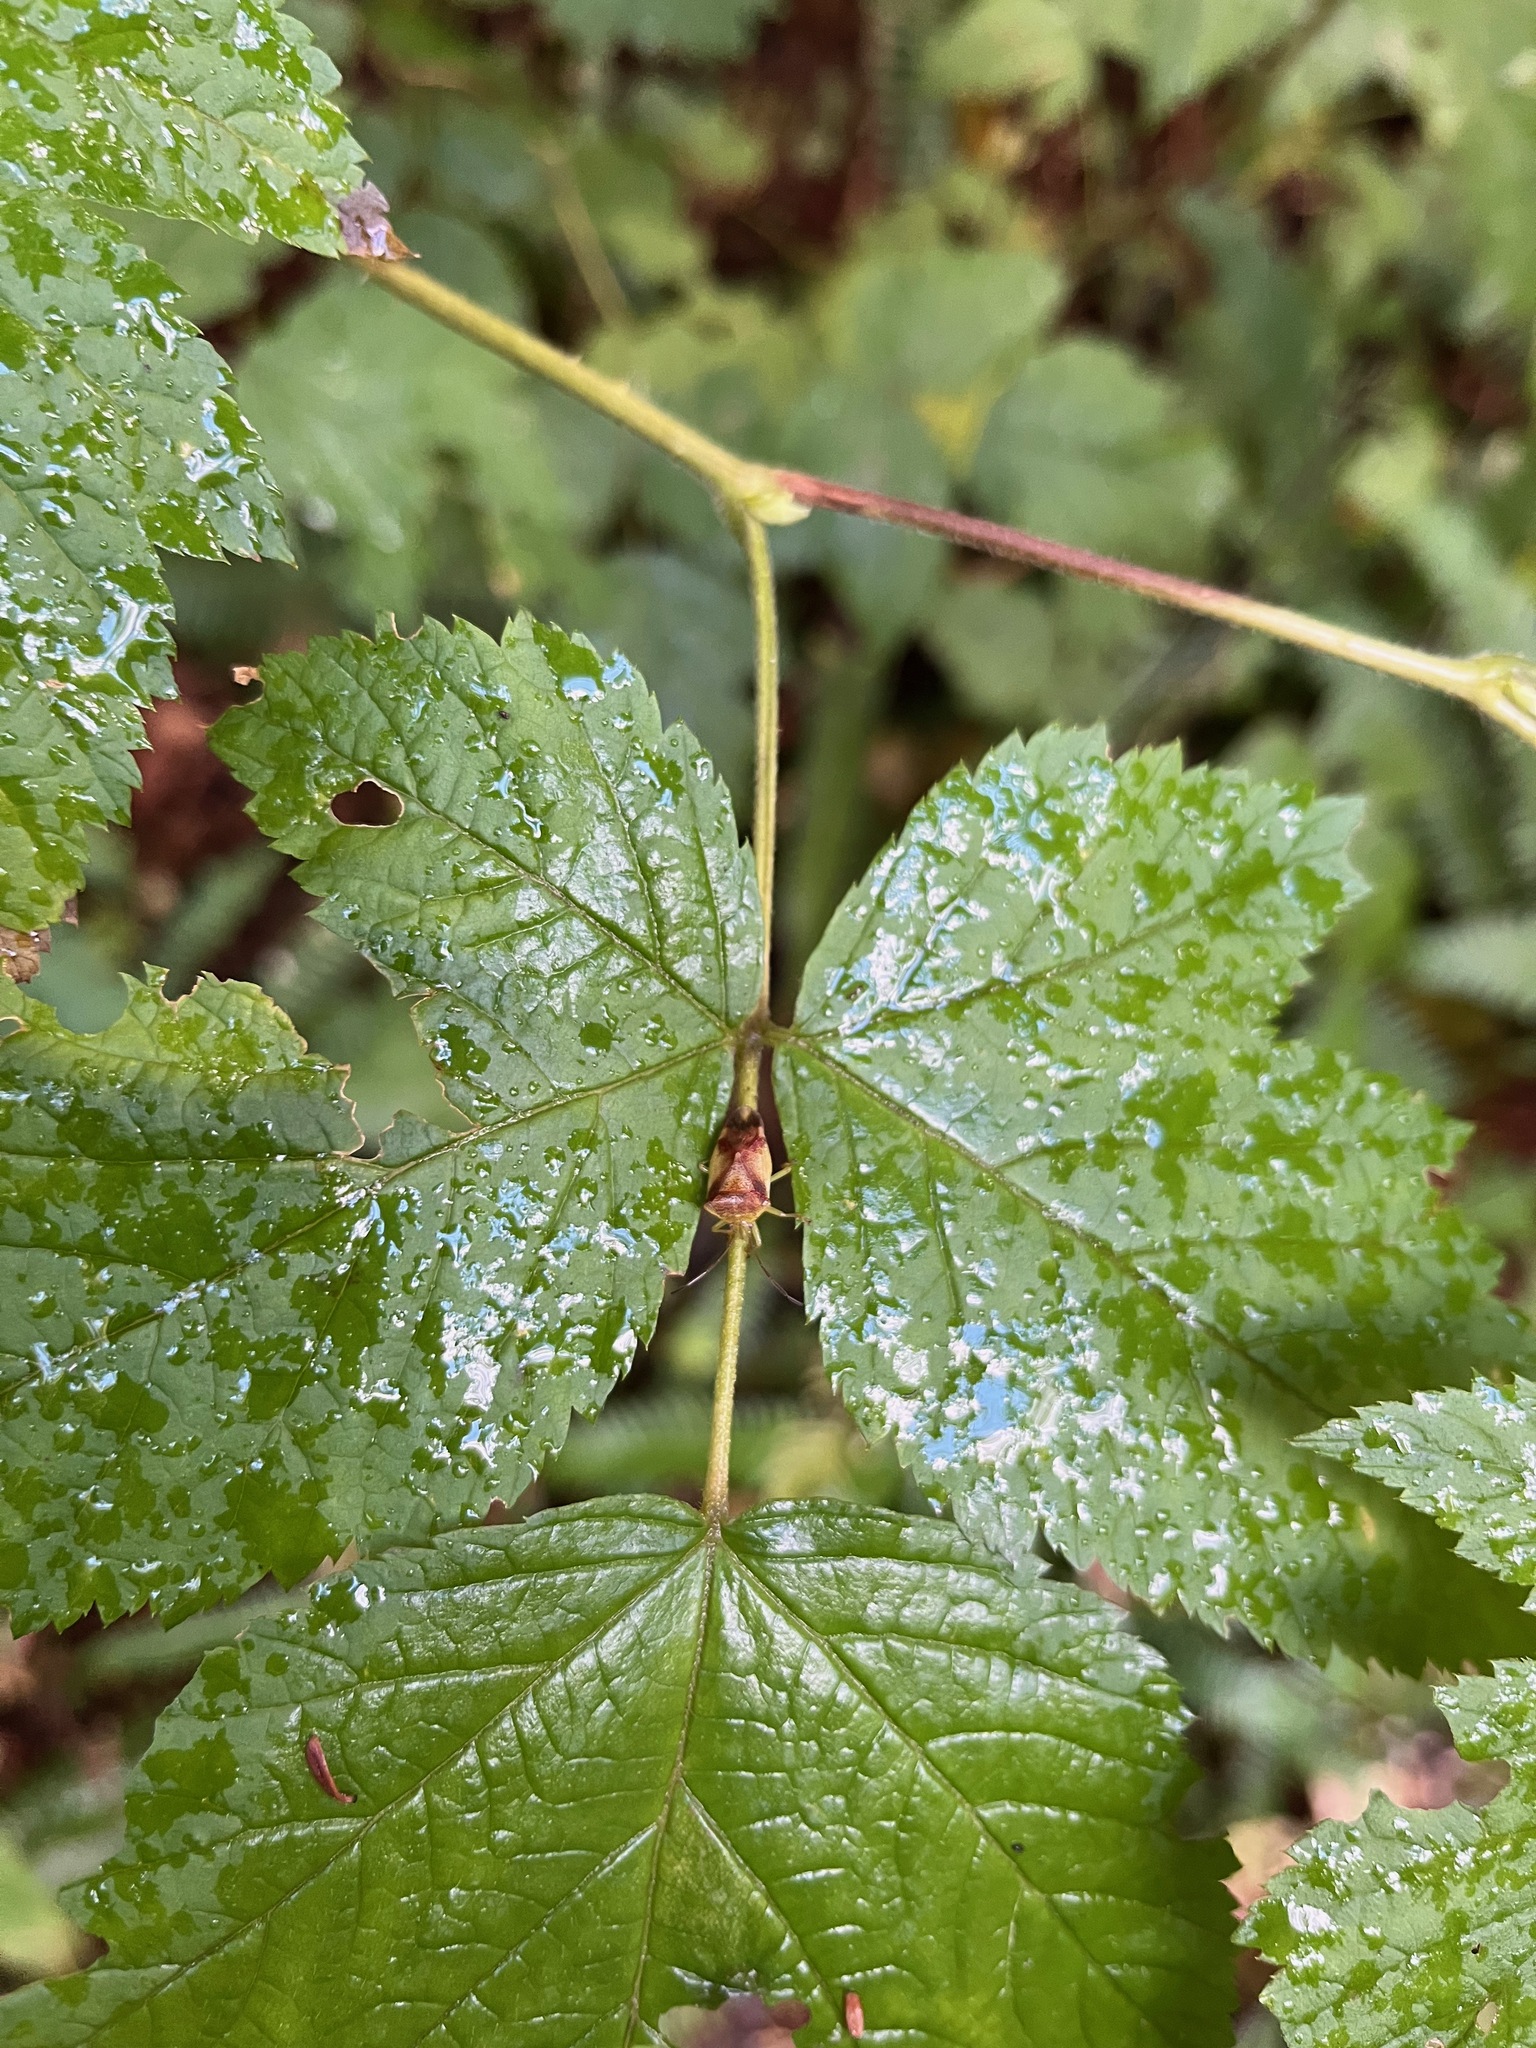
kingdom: Animalia
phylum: Arthropoda
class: Insecta
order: Hemiptera
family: Acanthosomatidae
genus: Elasmostethus
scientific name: Elasmostethus cruciatus
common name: Red-cross shield bug
